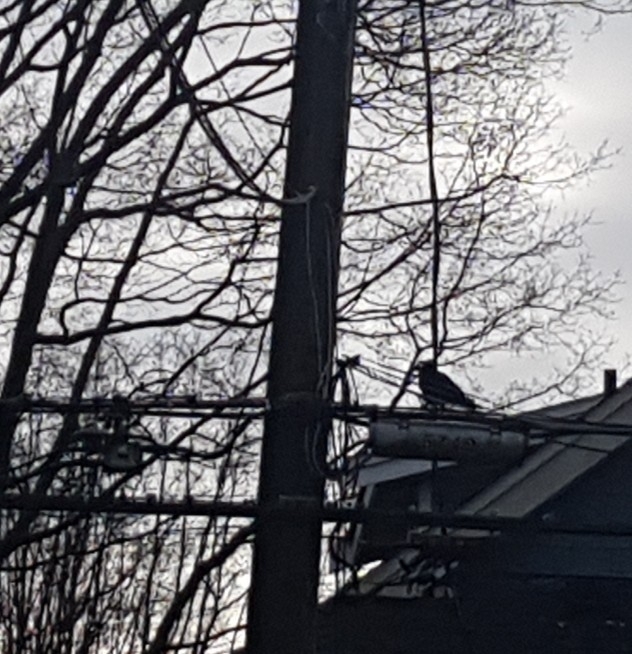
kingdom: Animalia
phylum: Chordata
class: Aves
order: Passeriformes
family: Corvidae
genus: Corvus
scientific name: Corvus brachyrhynchos
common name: American crow
